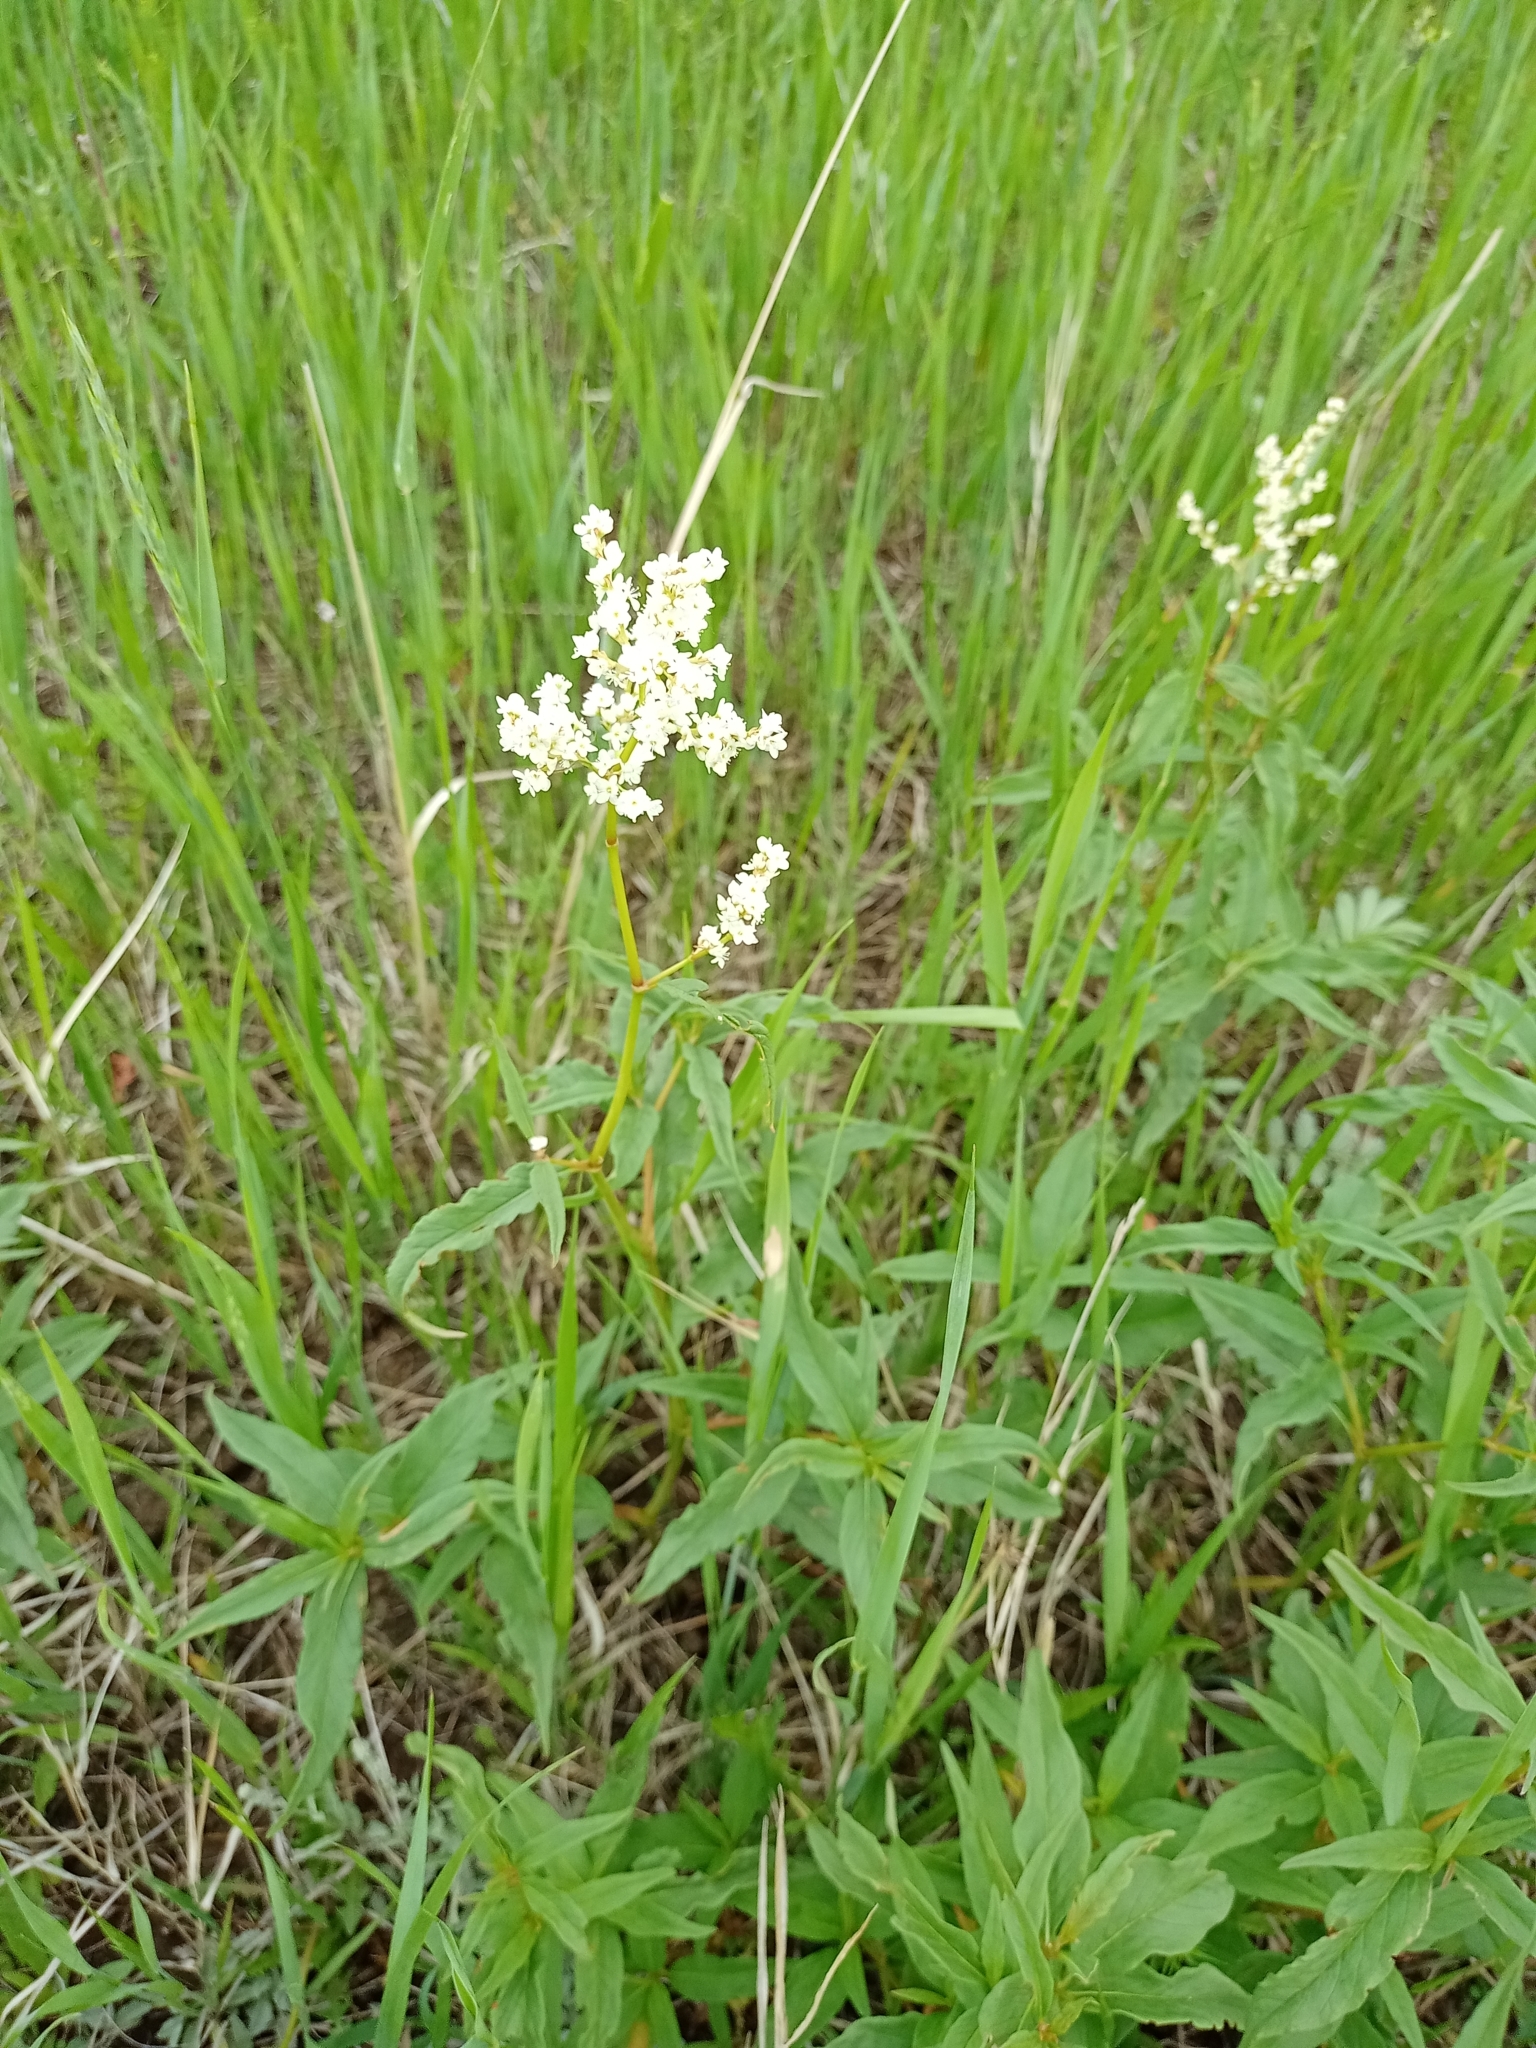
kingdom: Plantae
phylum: Tracheophyta
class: Magnoliopsida
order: Caryophyllales
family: Polygonaceae
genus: Koenigia
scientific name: Koenigia alpina
